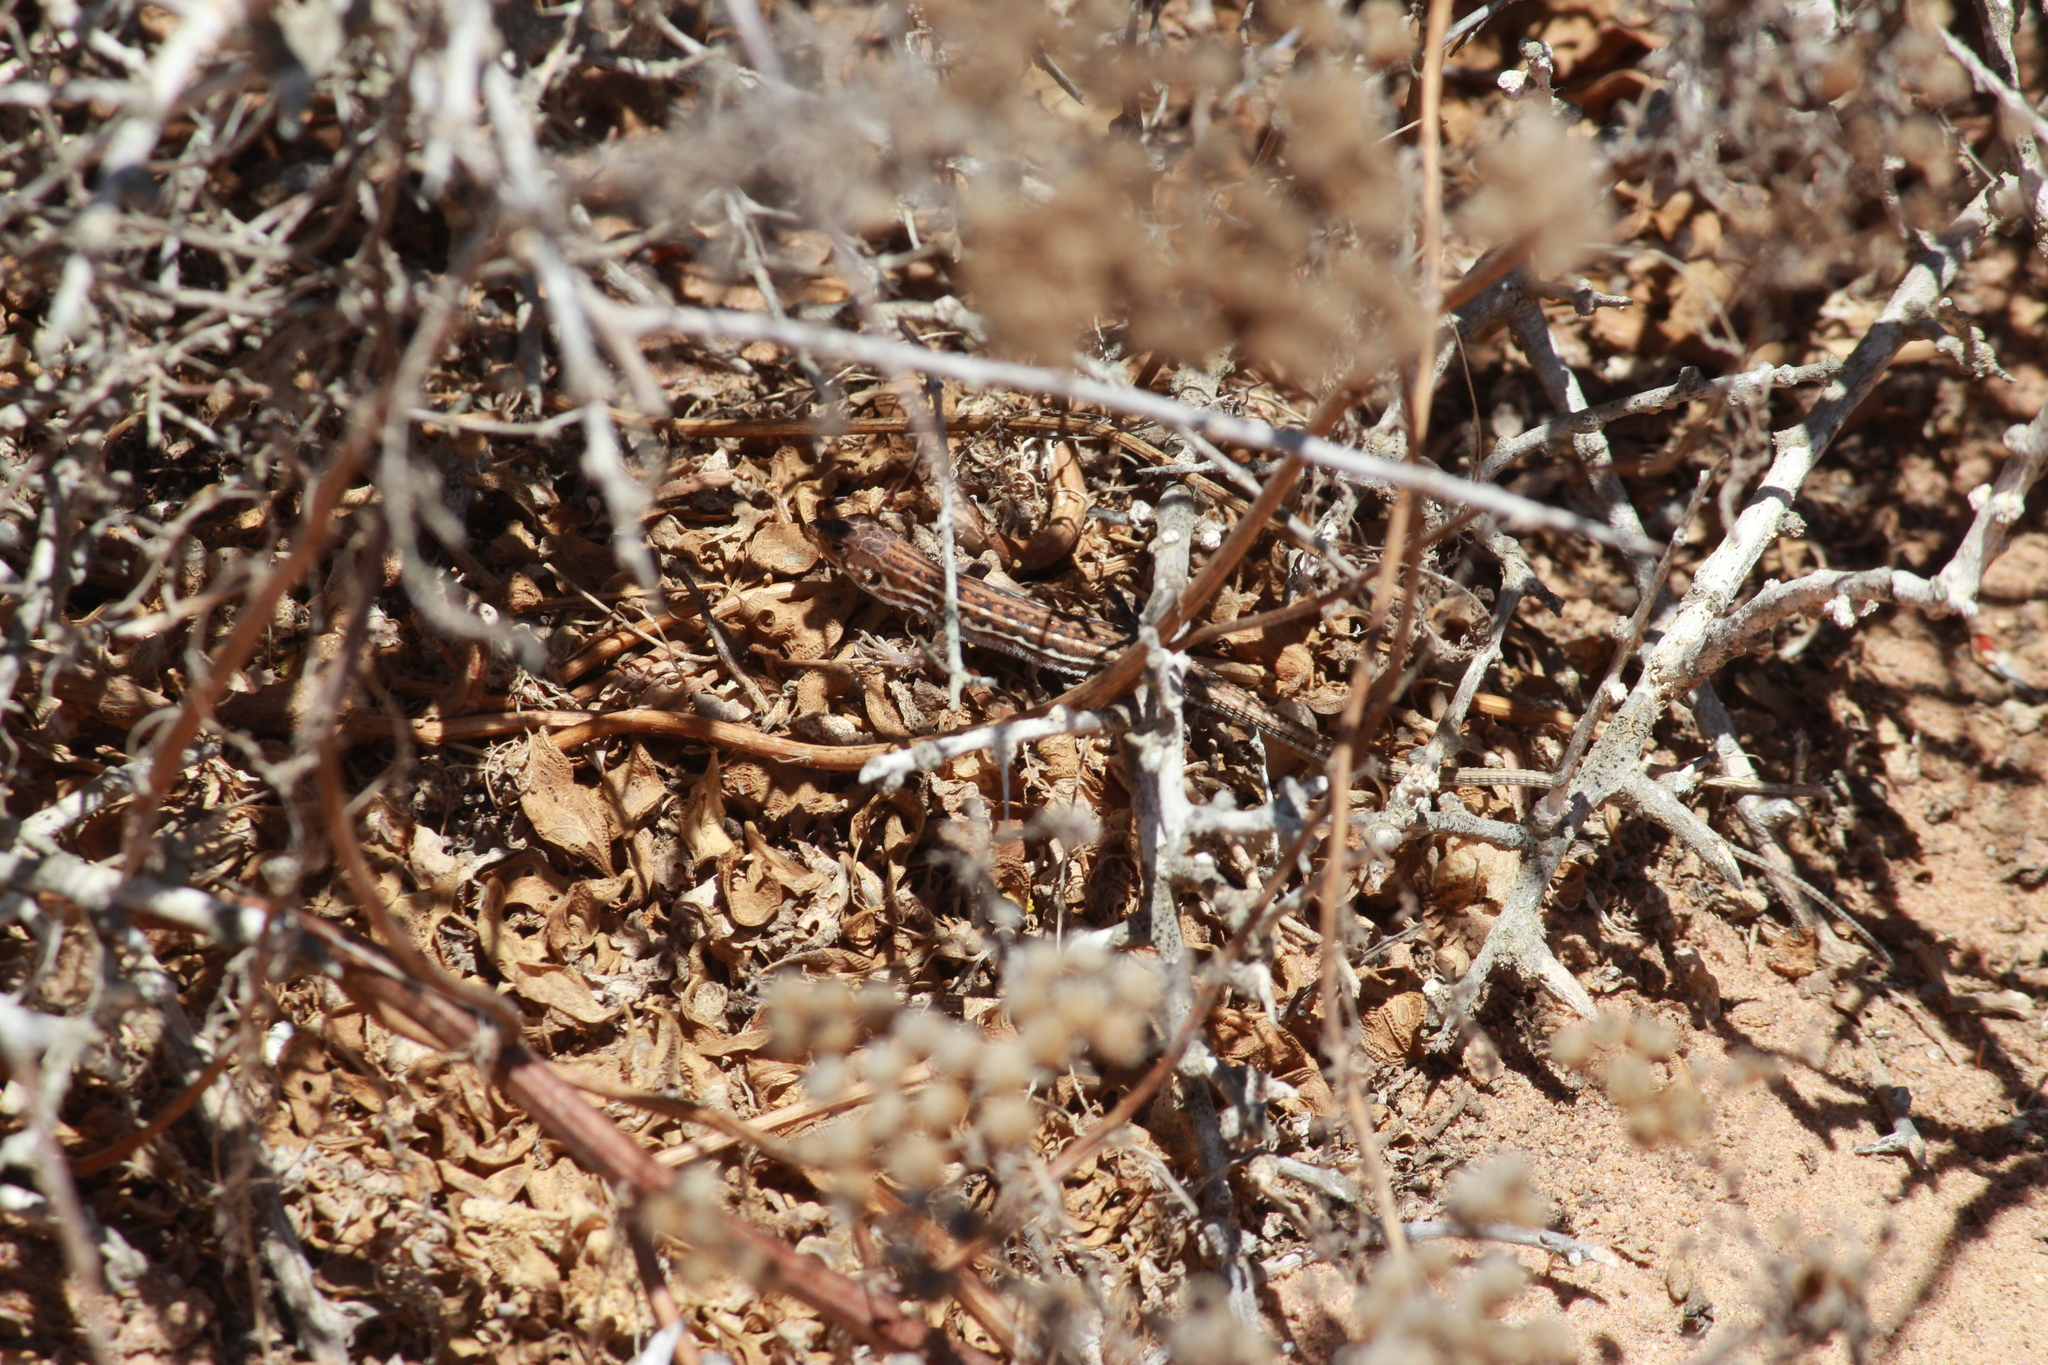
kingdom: Animalia
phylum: Chordata
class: Squamata
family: Lacertidae
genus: Meroles
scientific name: Meroles knoxii
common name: Knox's desert lizard
